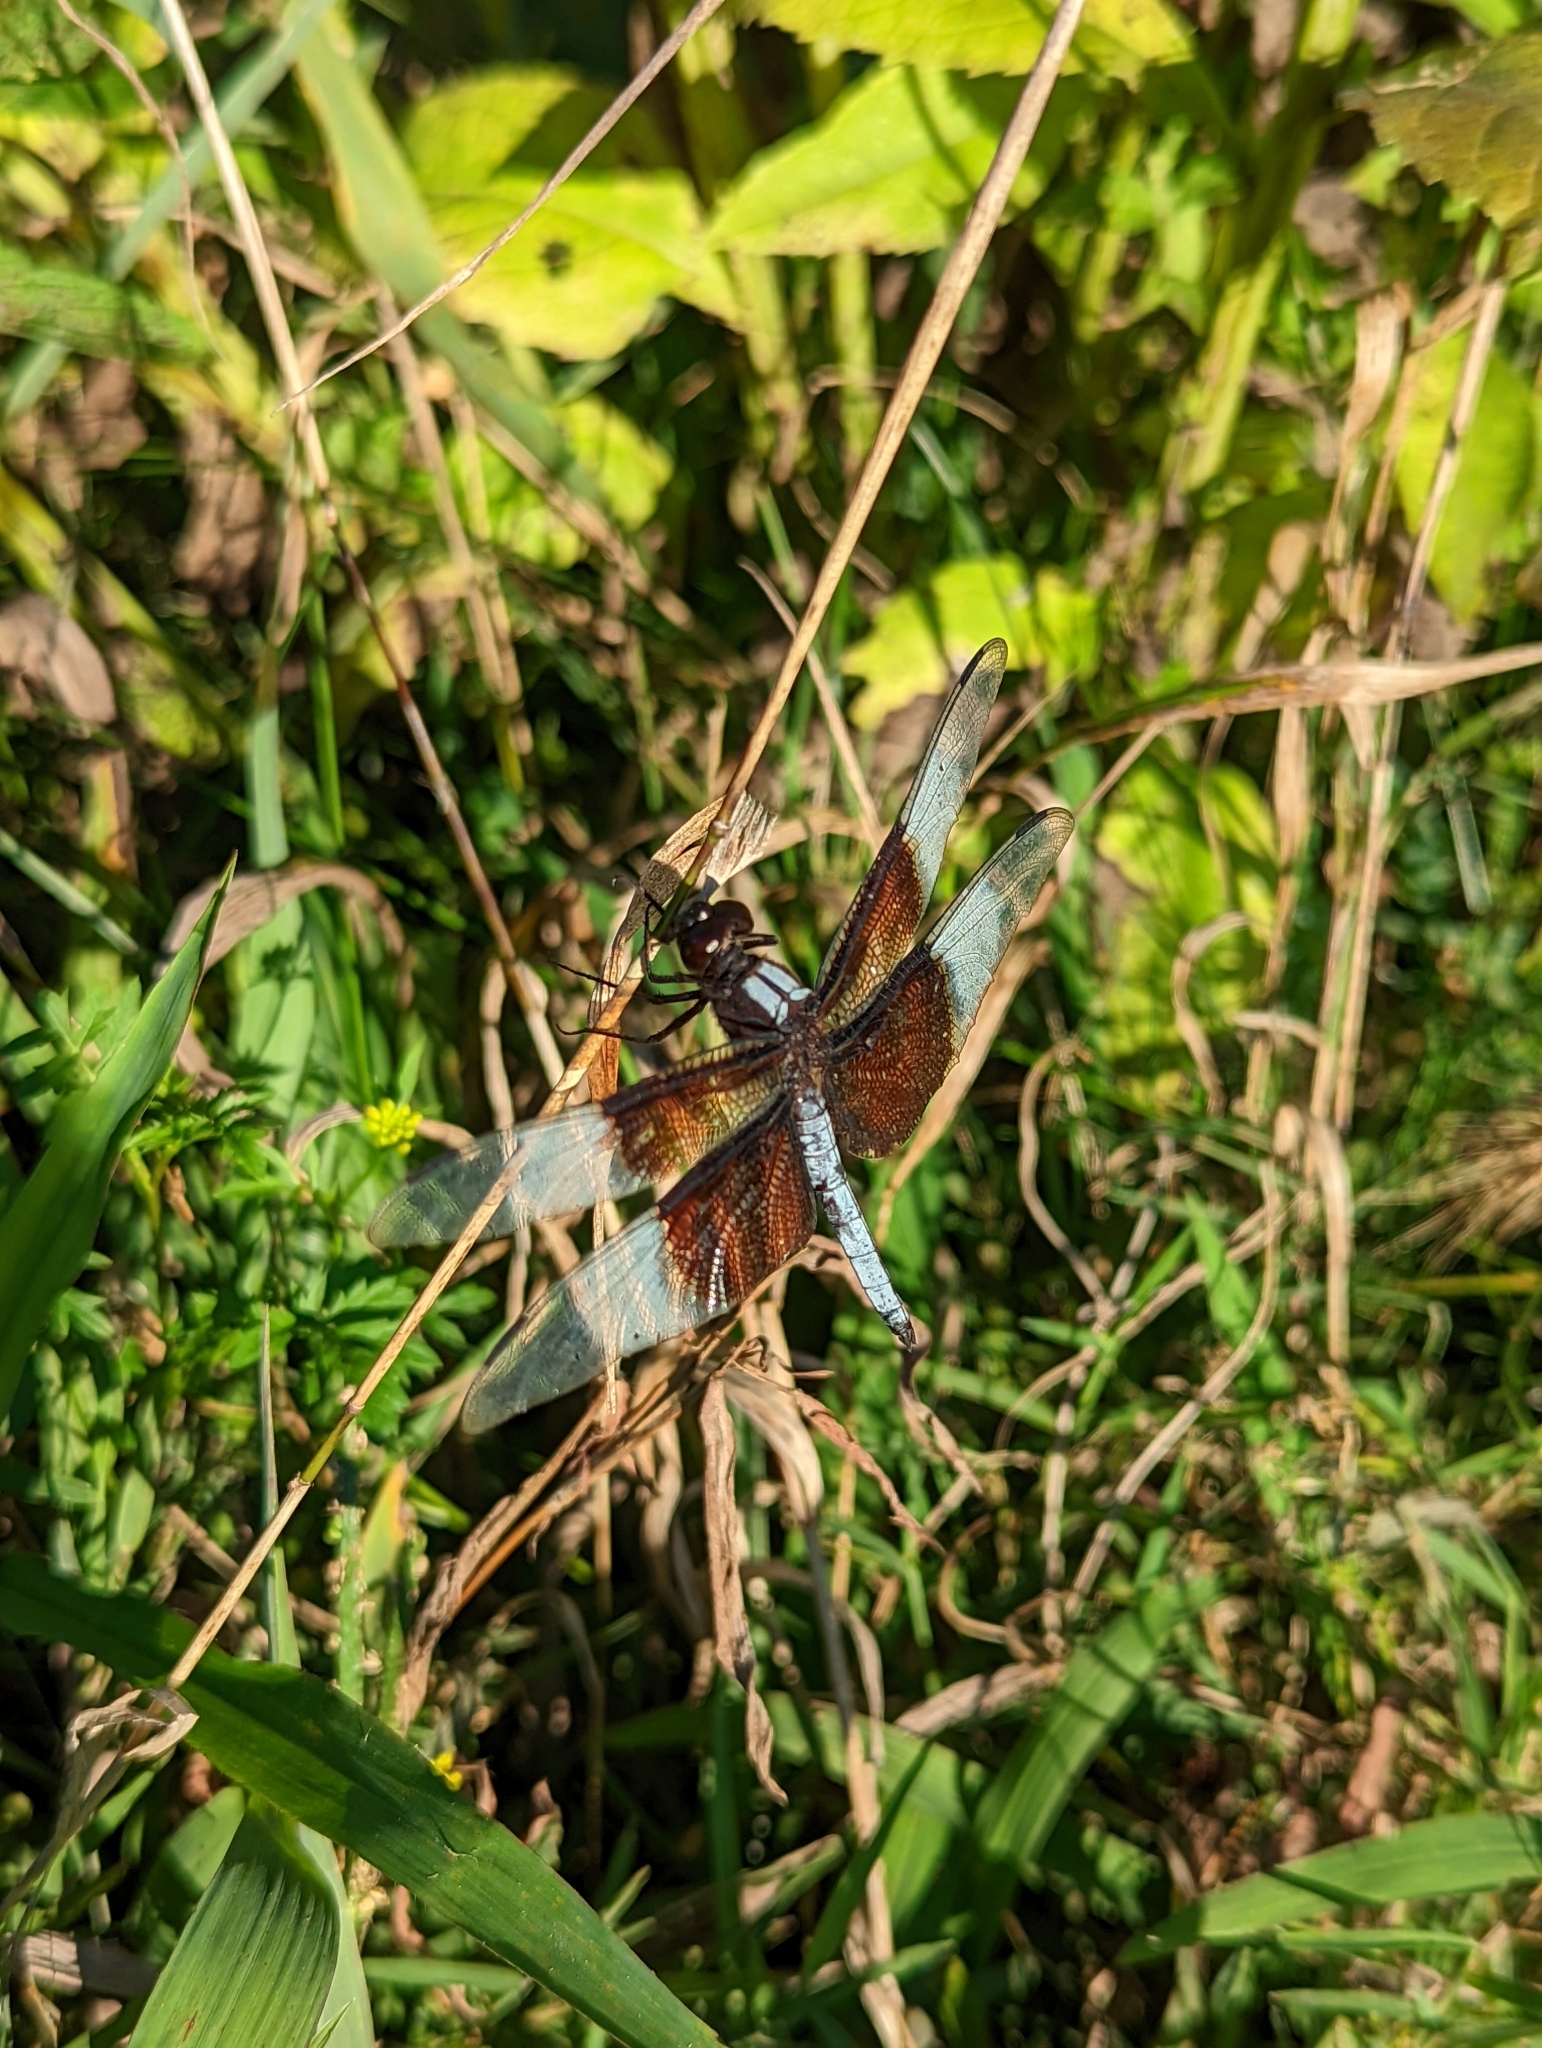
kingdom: Animalia
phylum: Arthropoda
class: Insecta
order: Odonata
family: Libellulidae
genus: Libellula
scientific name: Libellula luctuosa
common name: Widow skimmer
